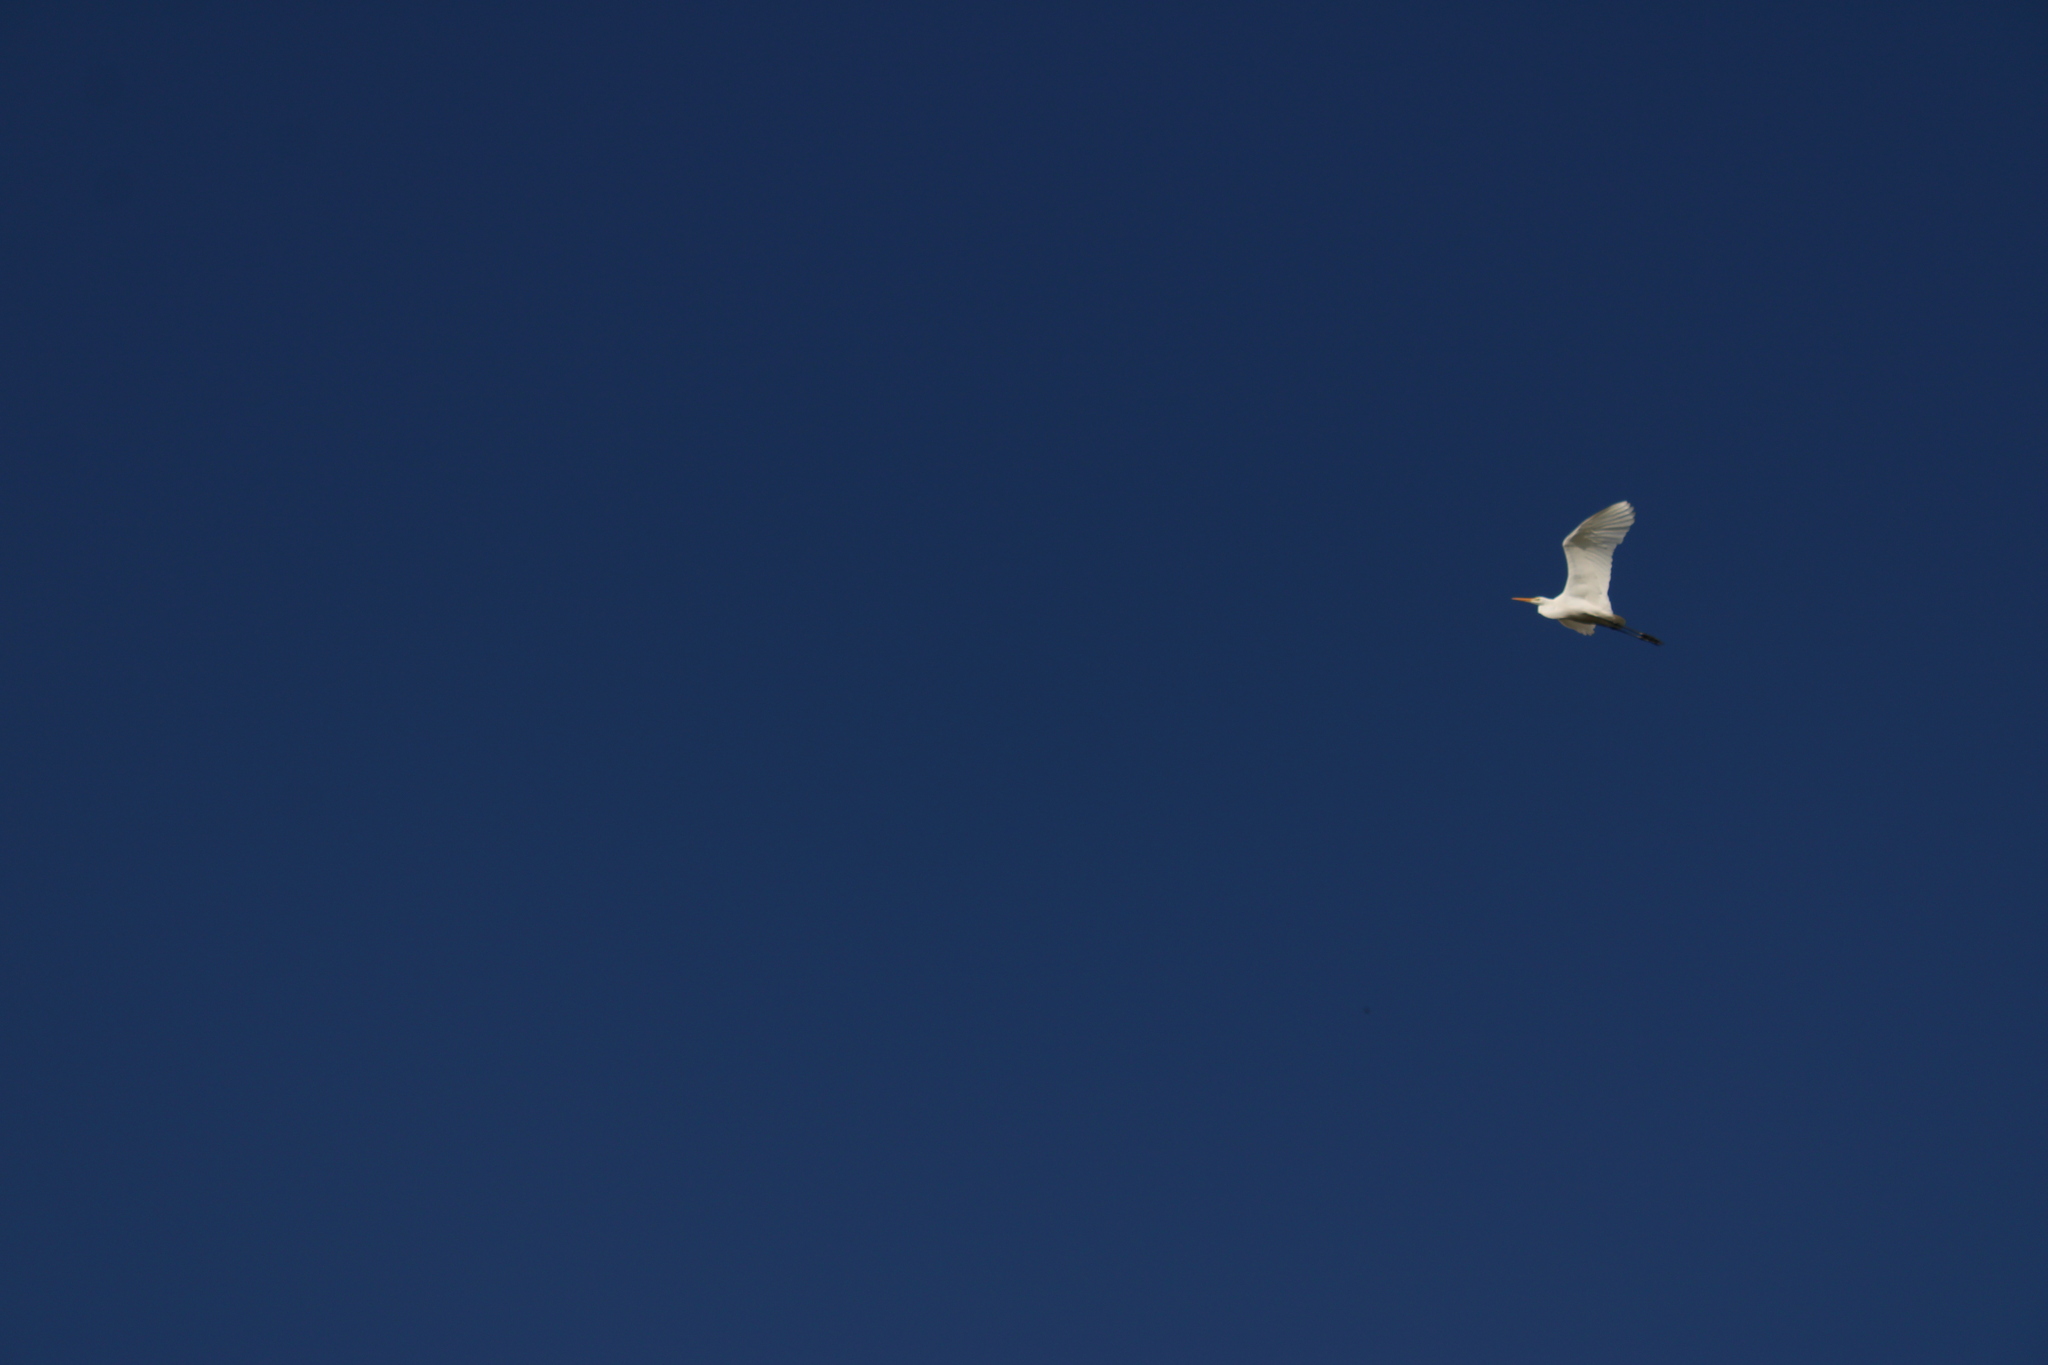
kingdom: Animalia
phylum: Chordata
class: Aves
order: Pelecaniformes
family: Ardeidae
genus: Ardea
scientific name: Ardea alba
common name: Great egret
